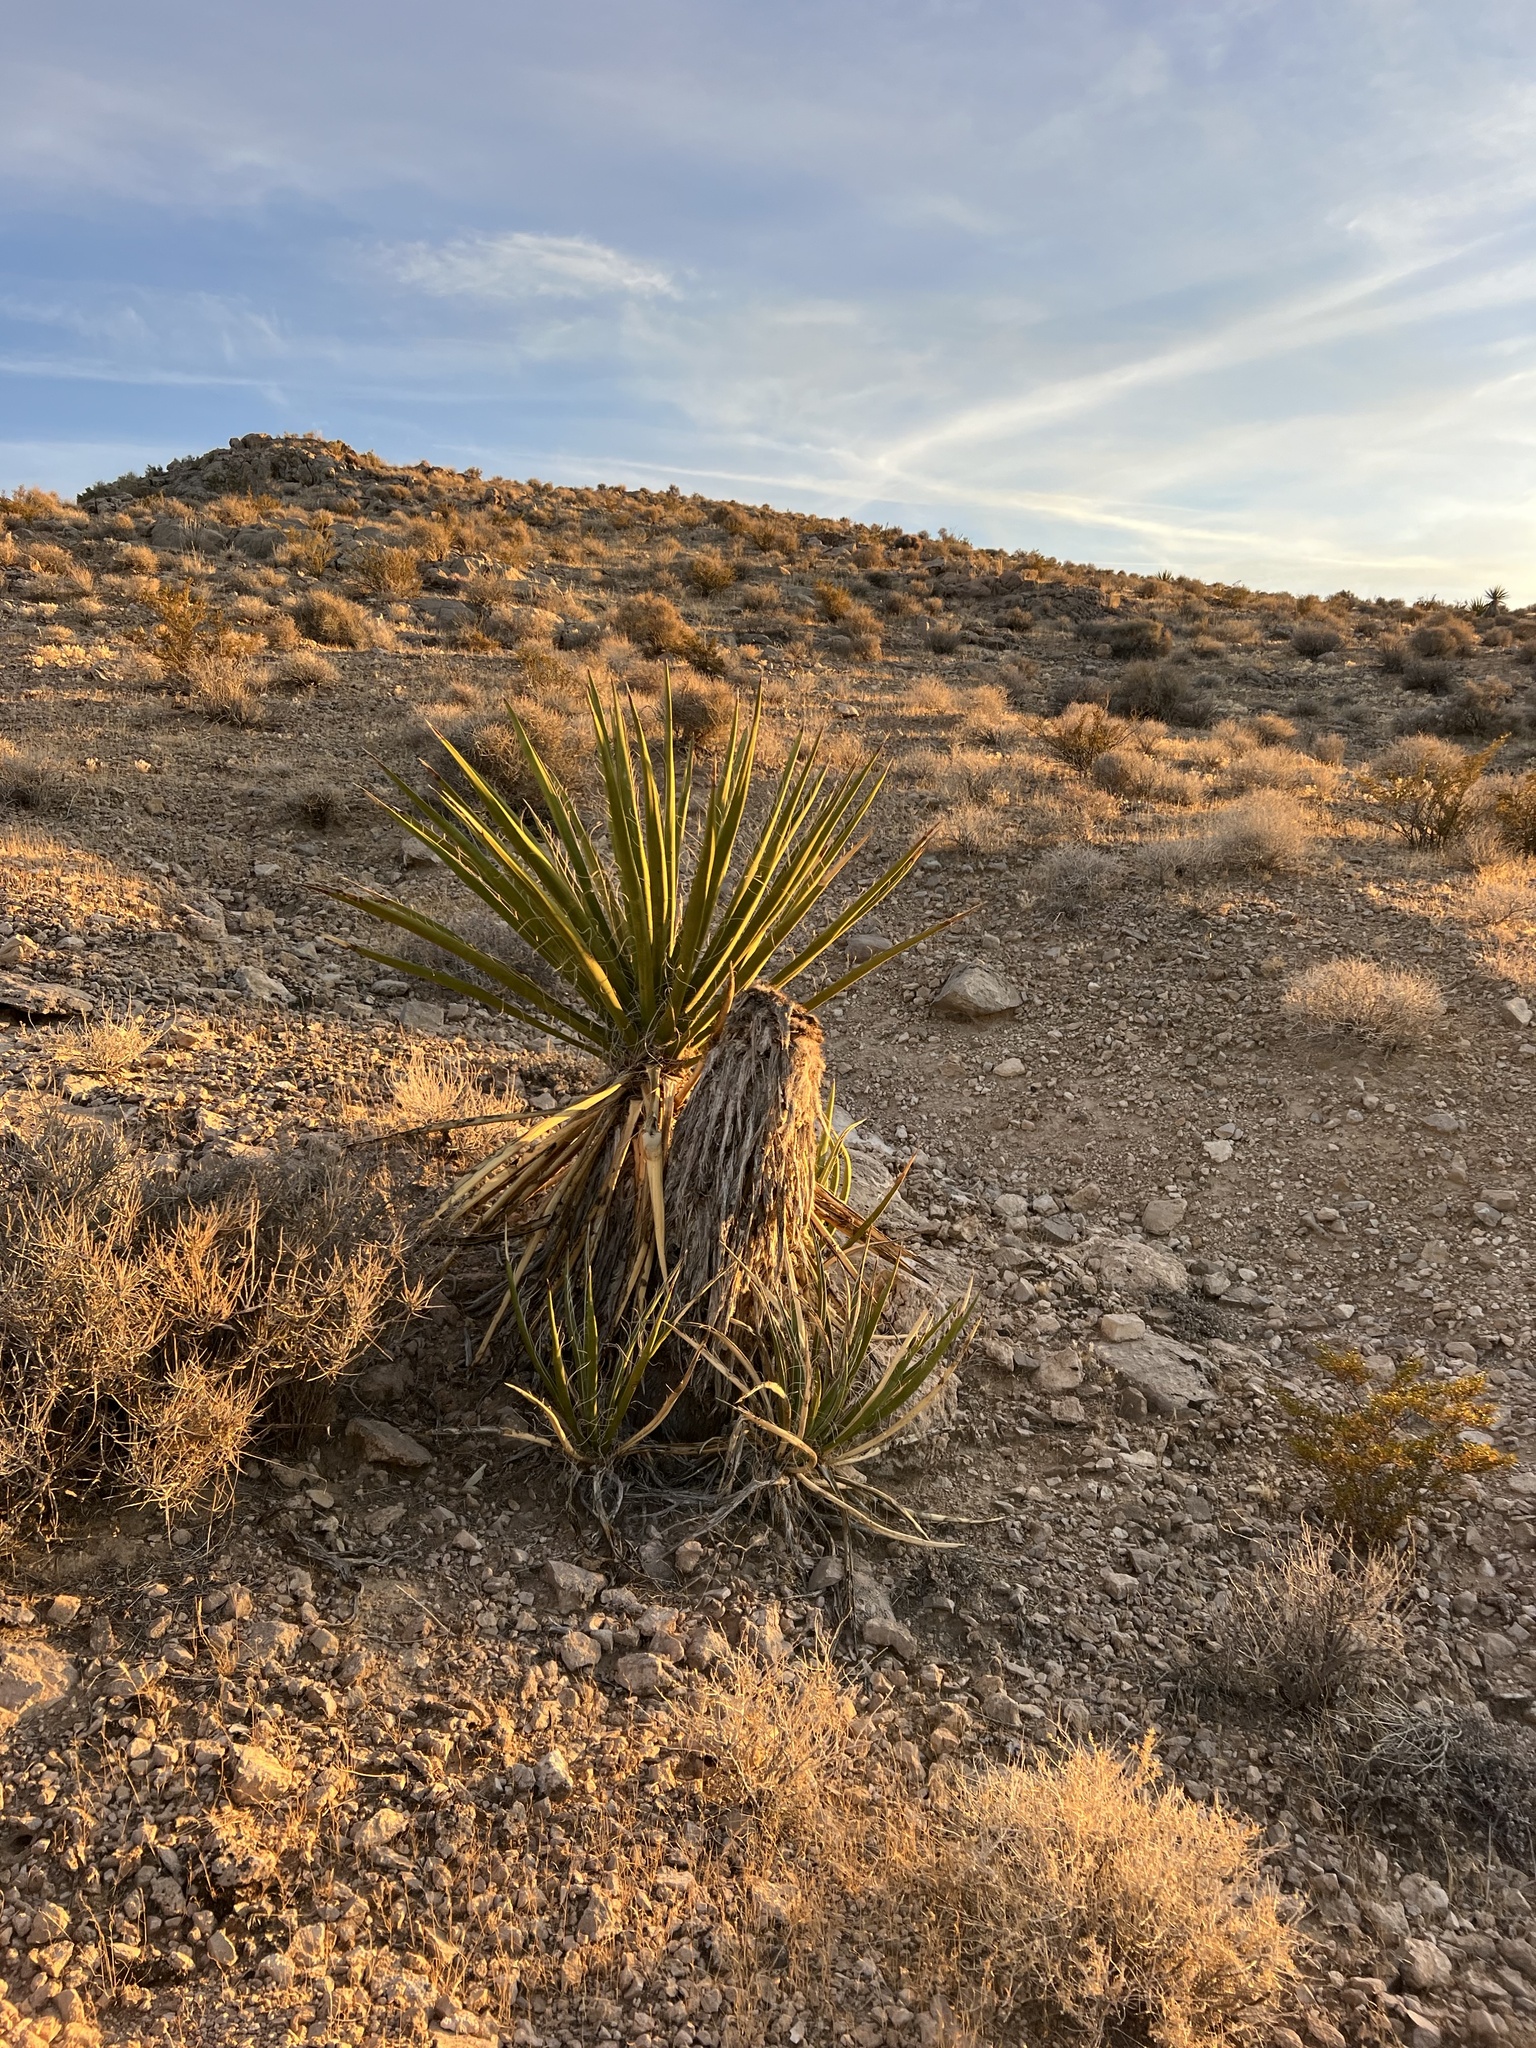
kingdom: Plantae
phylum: Tracheophyta
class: Liliopsida
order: Asparagales
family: Asparagaceae
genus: Yucca
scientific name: Yucca schidigera
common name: Mojave yucca
